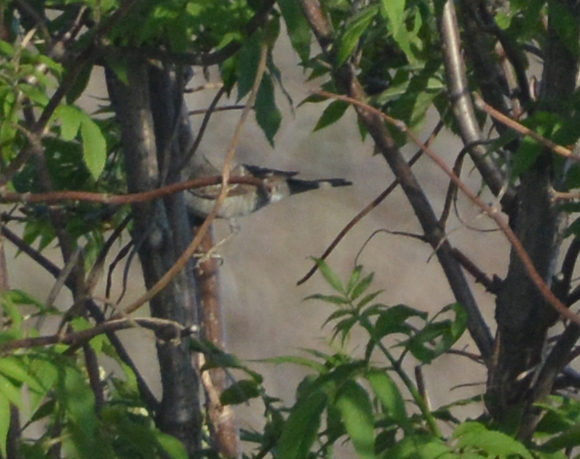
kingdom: Animalia
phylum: Chordata
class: Aves
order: Passeriformes
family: Sylviidae
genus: Sylvia
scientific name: Sylvia nisoria
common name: Barred warbler
